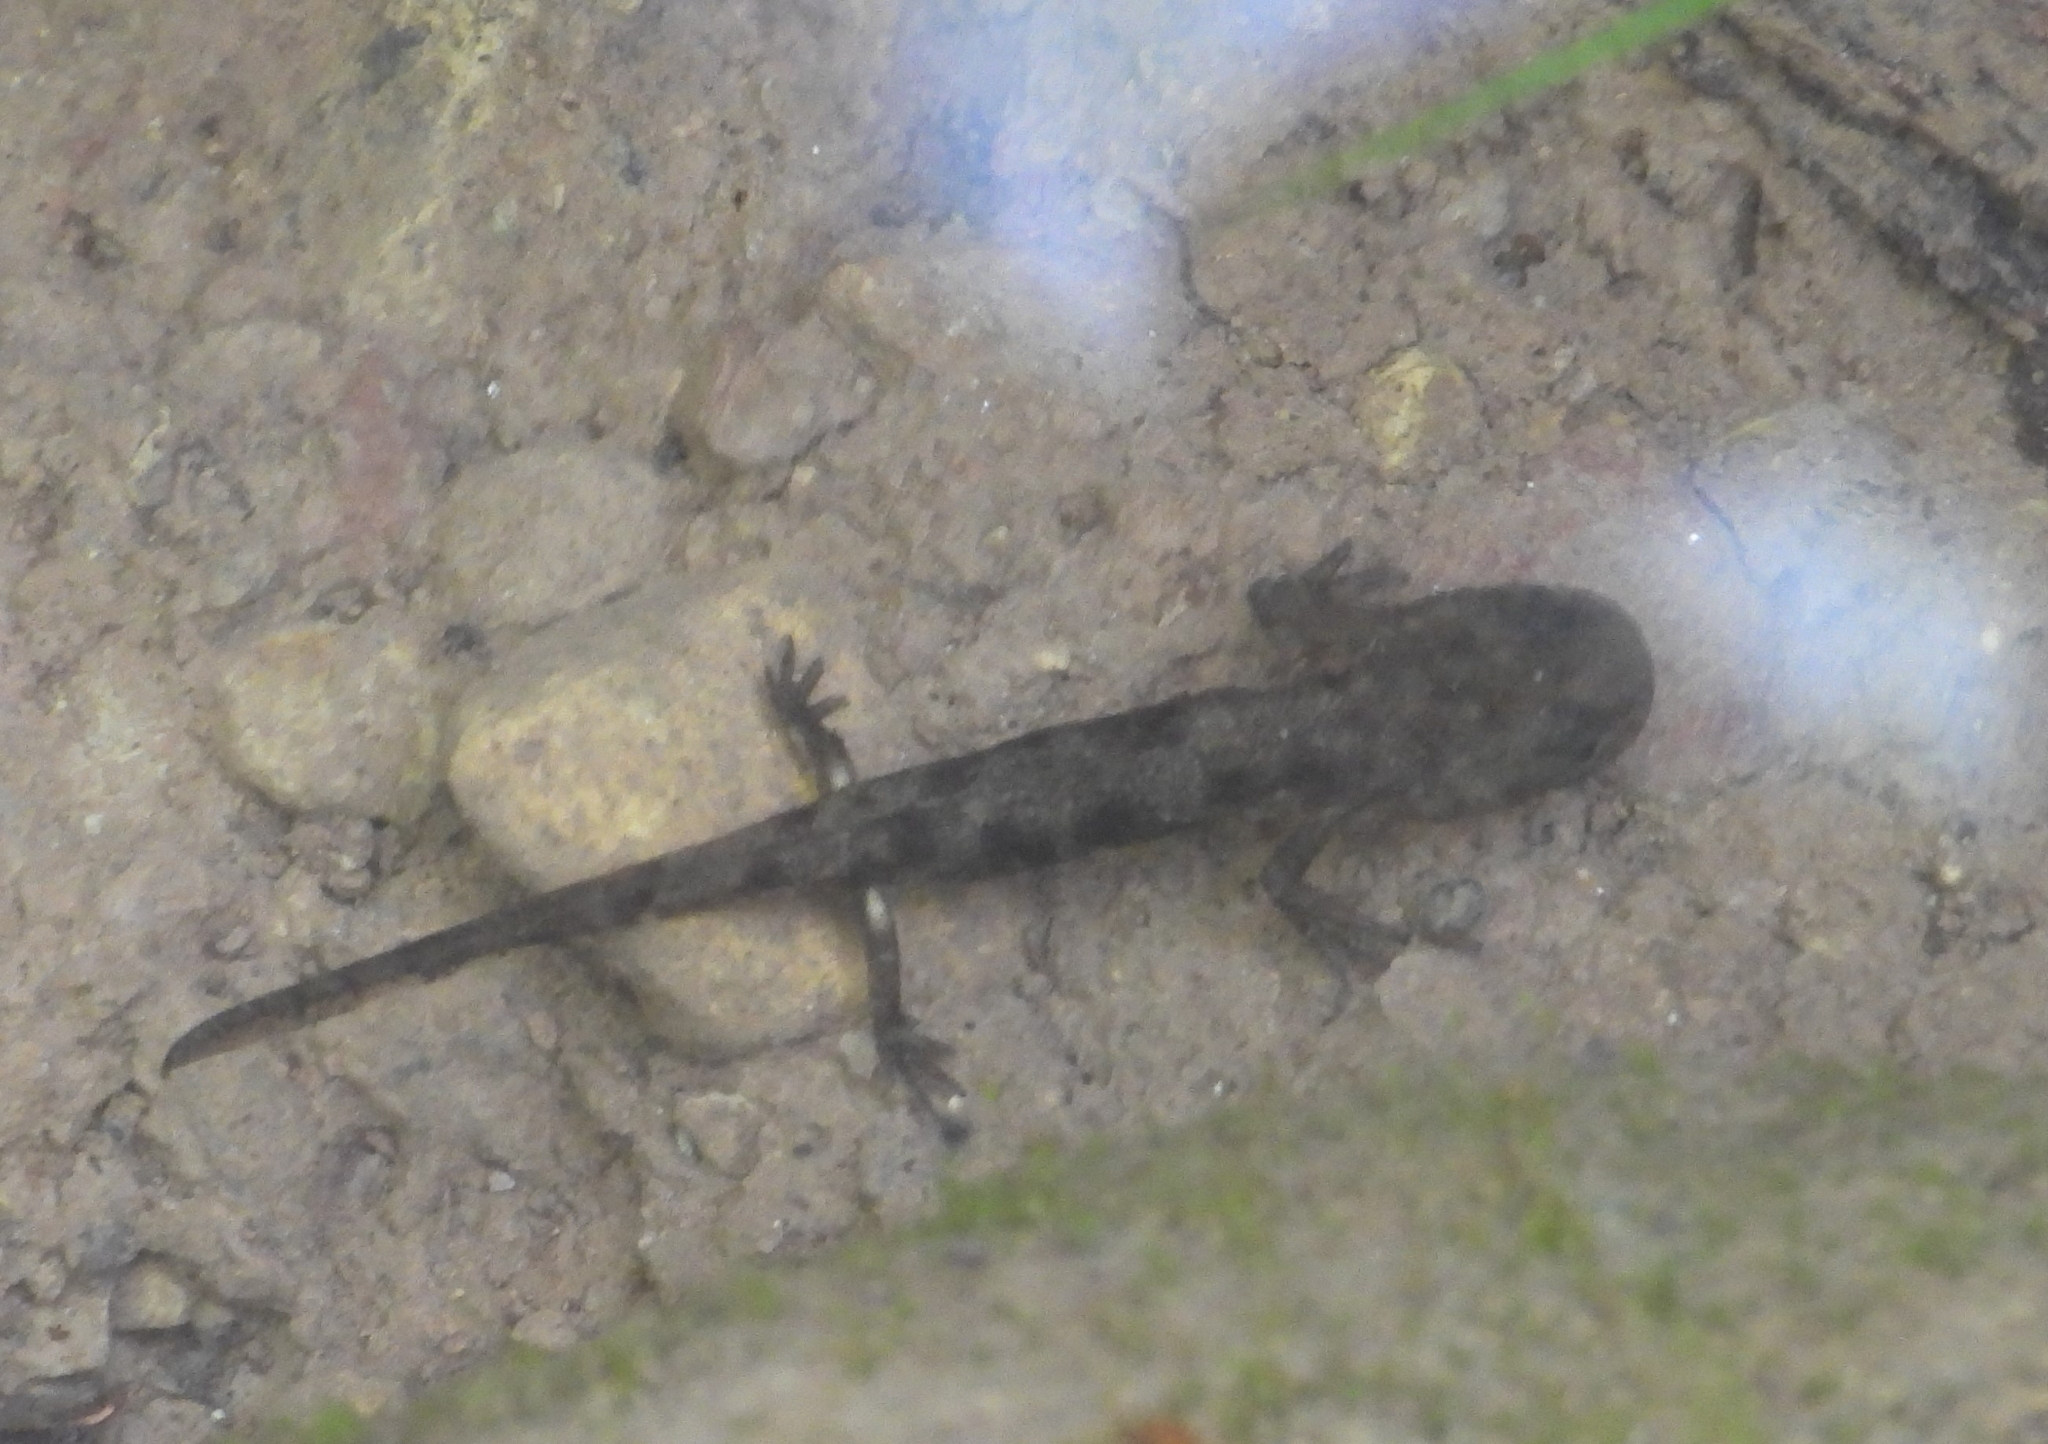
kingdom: Animalia
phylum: Chordata
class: Amphibia
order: Caudata
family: Salamandridae
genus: Salamandra
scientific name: Salamandra salamandra
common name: Fire salamander
